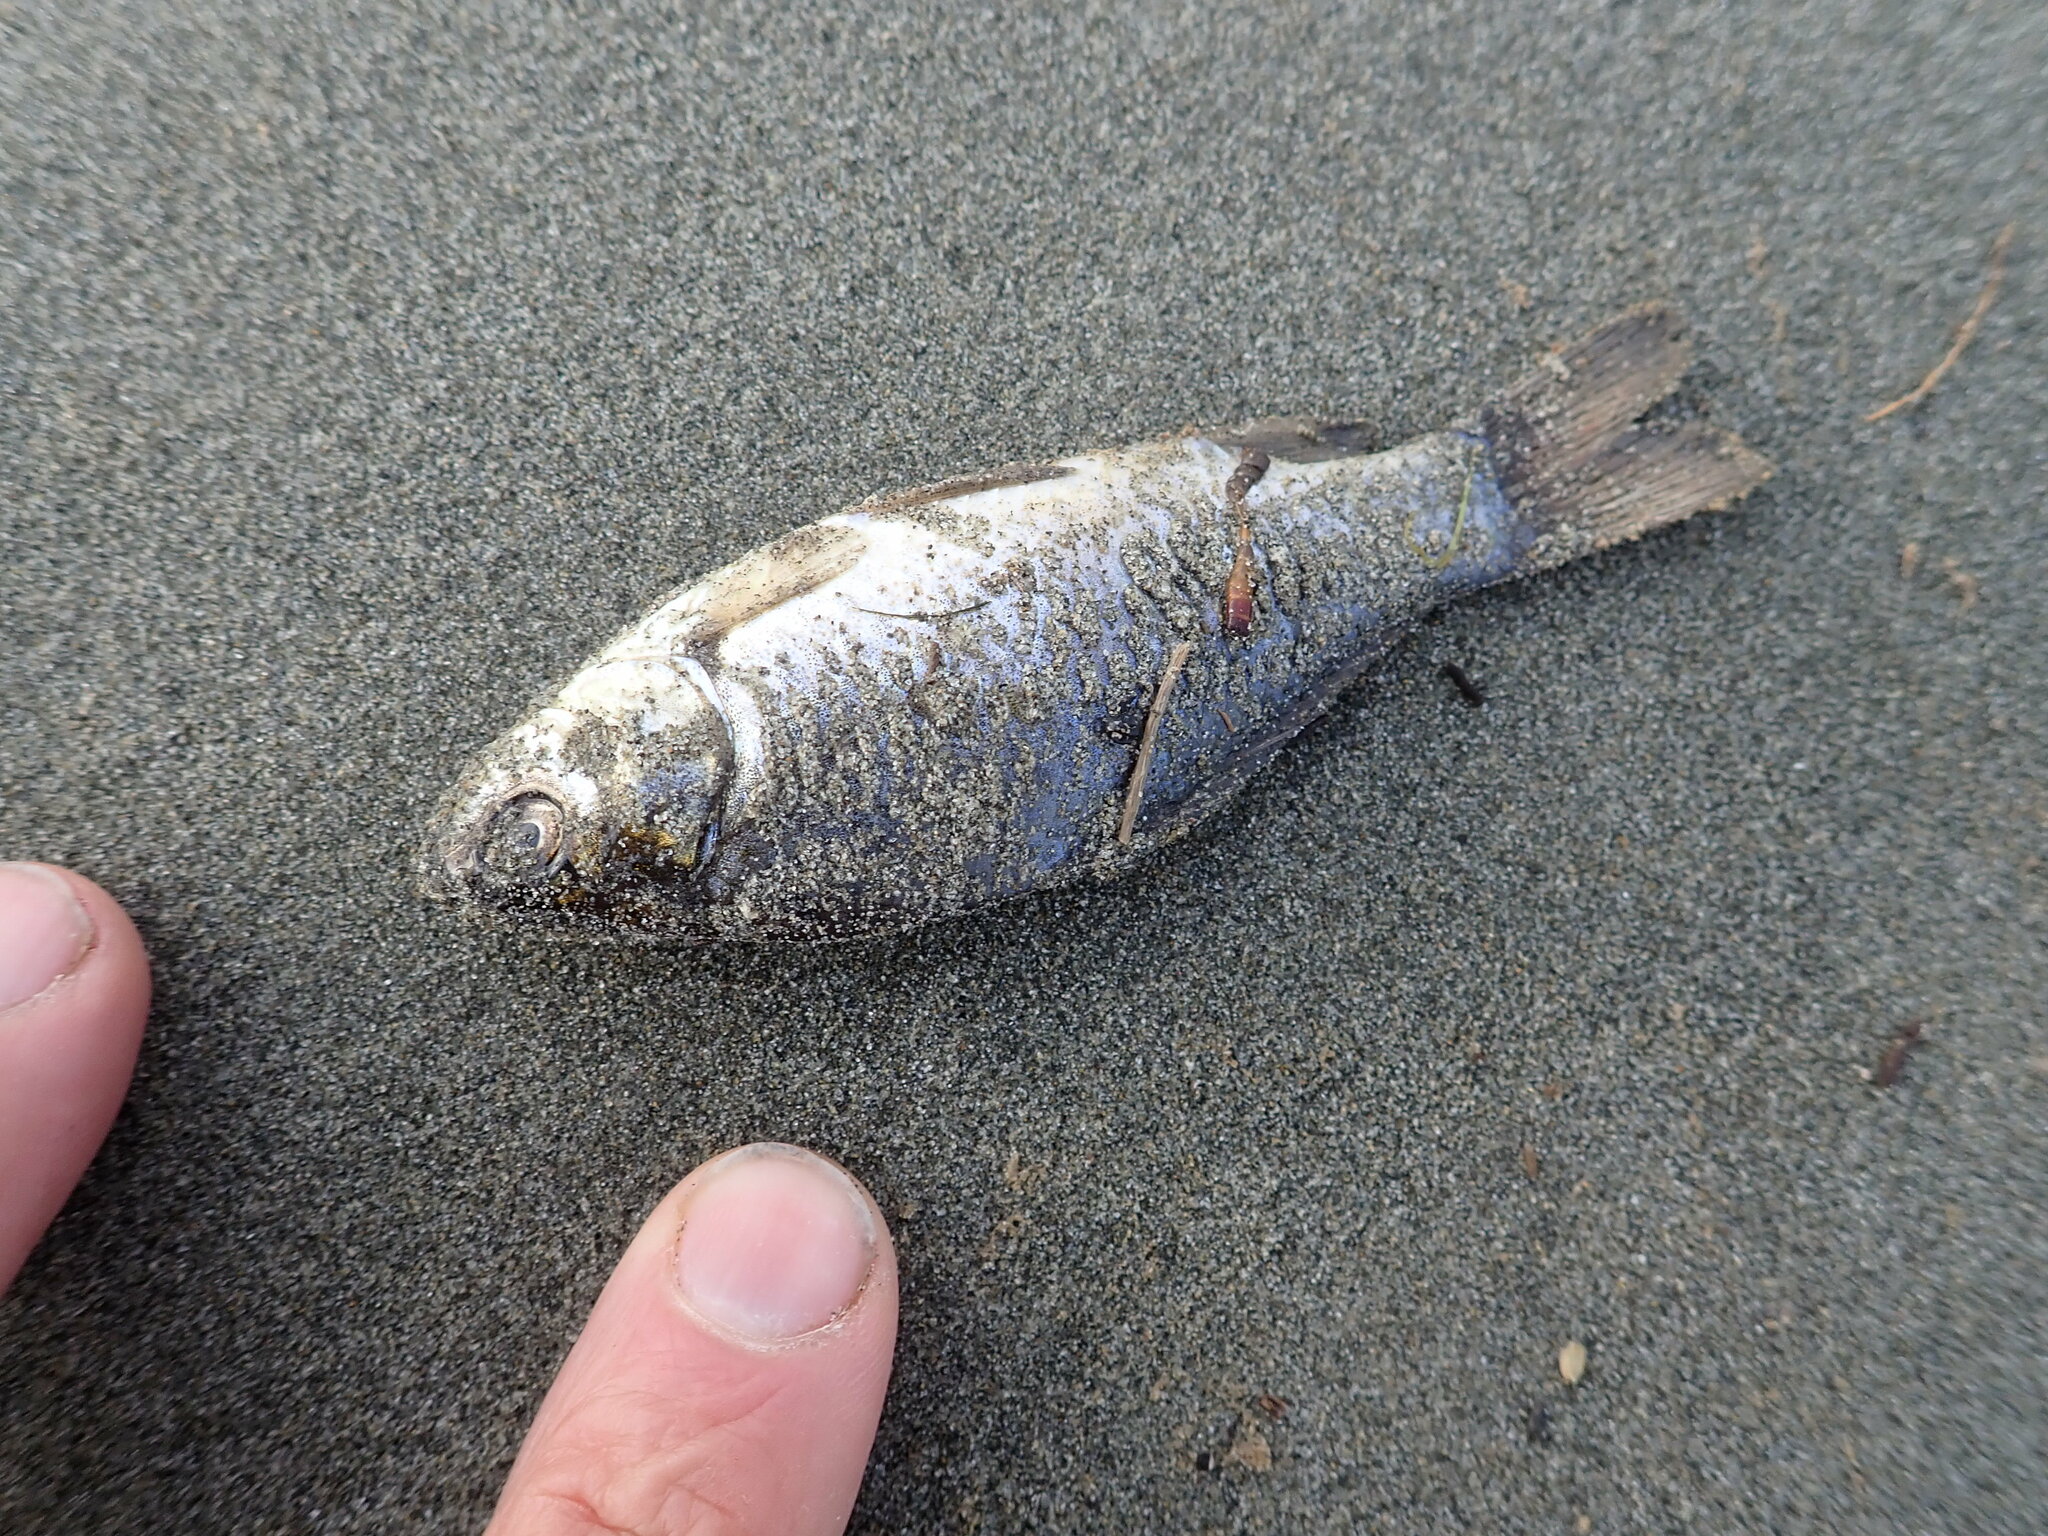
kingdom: Animalia
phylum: Chordata
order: Cypriniformes
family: Cyprinidae
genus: Carassius
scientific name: Carassius auratus
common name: Goldfish
